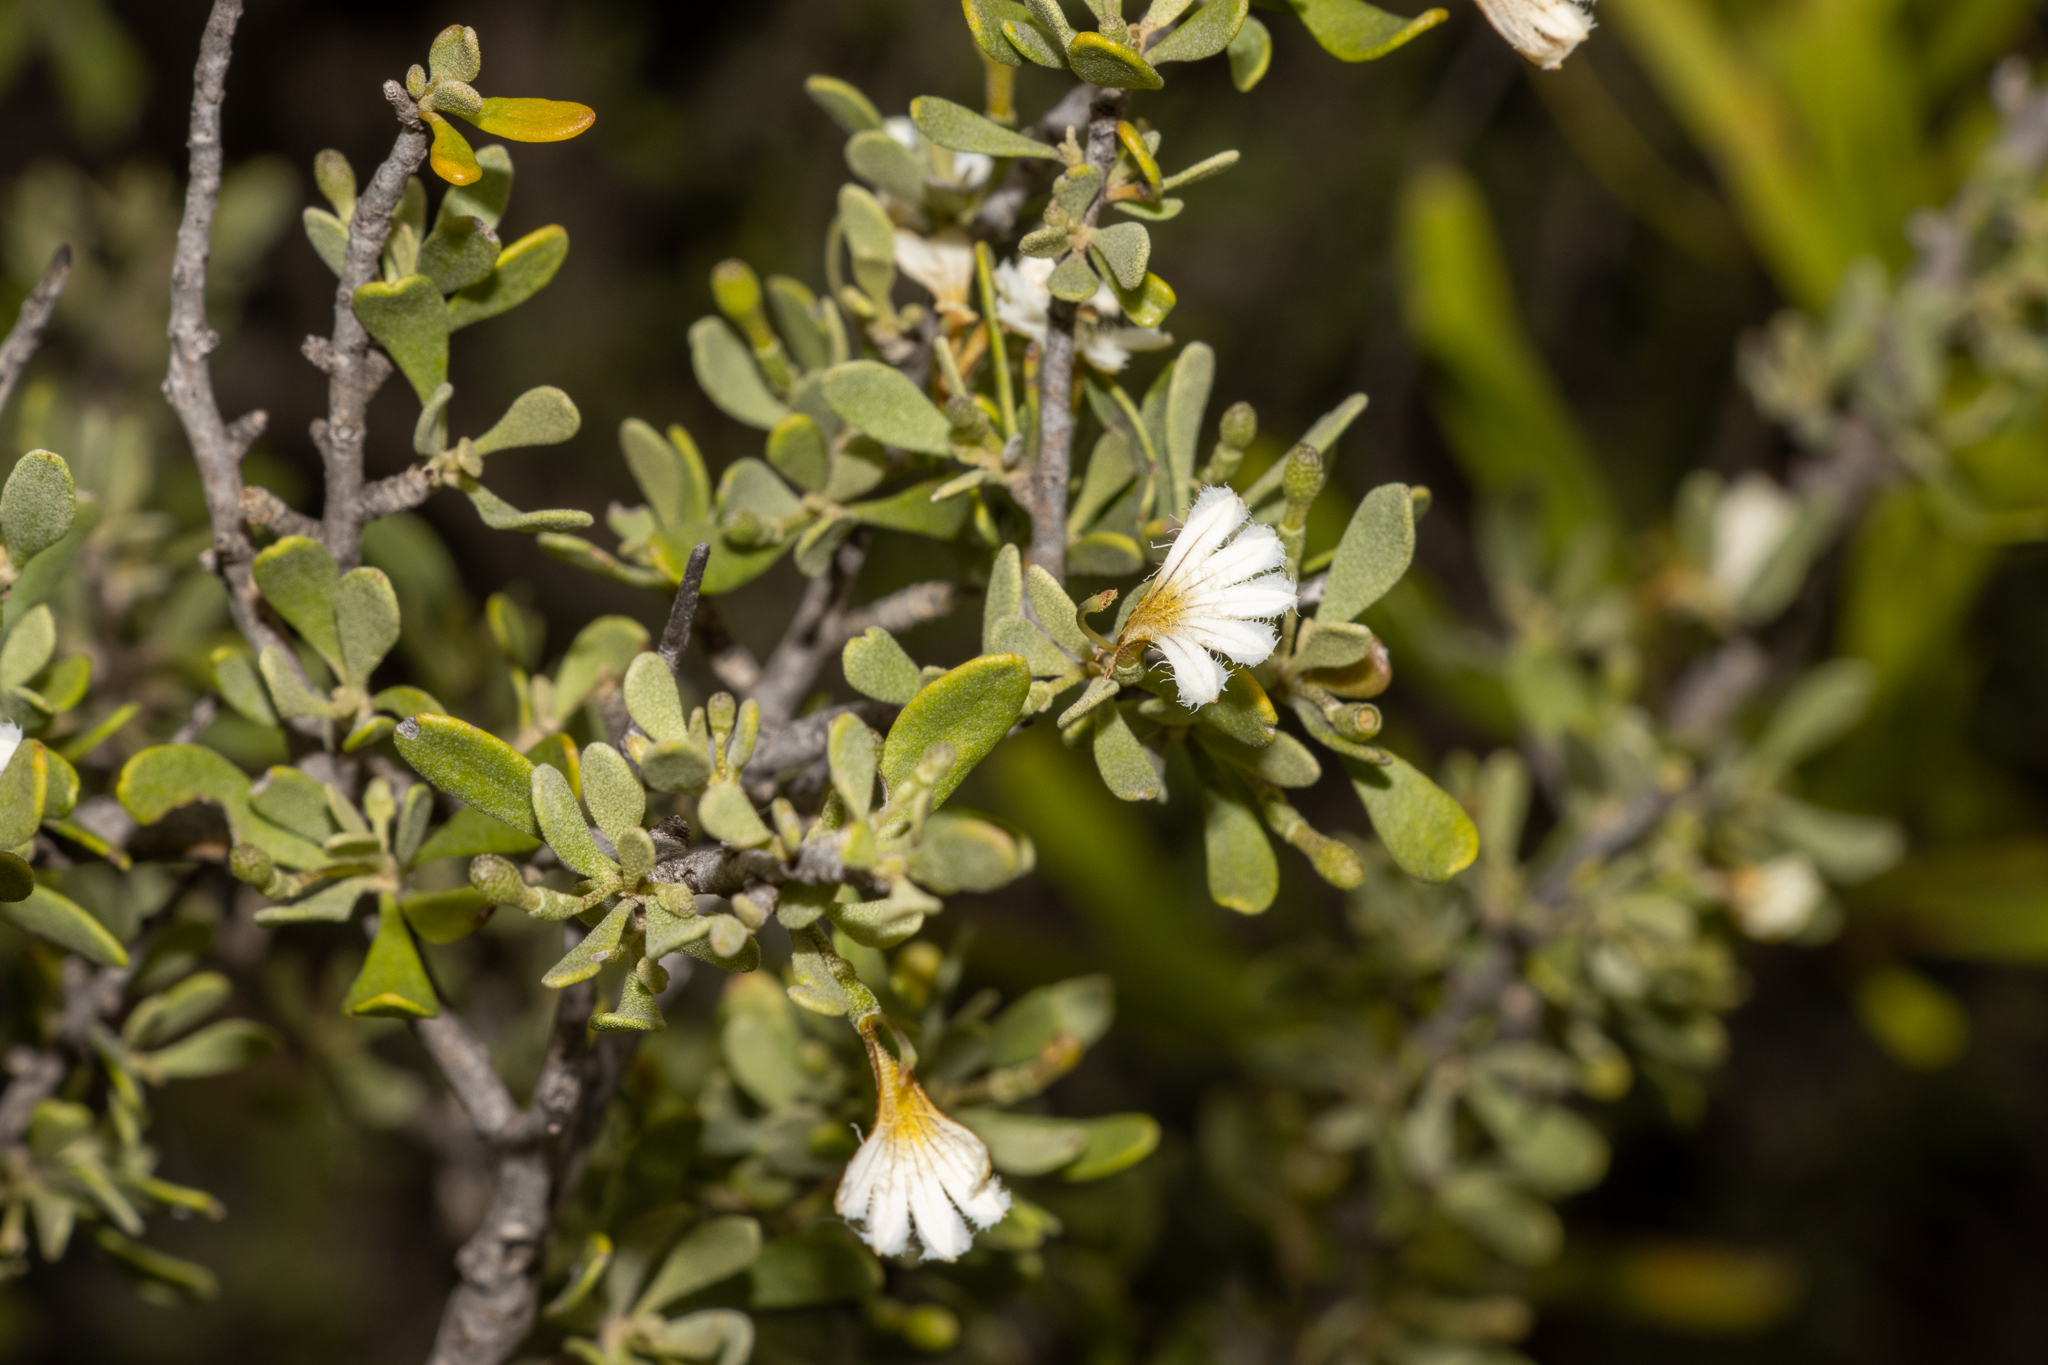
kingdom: Plantae
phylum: Tracheophyta
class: Magnoliopsida
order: Asterales
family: Goodeniaceae
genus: Scaevola
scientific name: Scaevola bursariifolia
